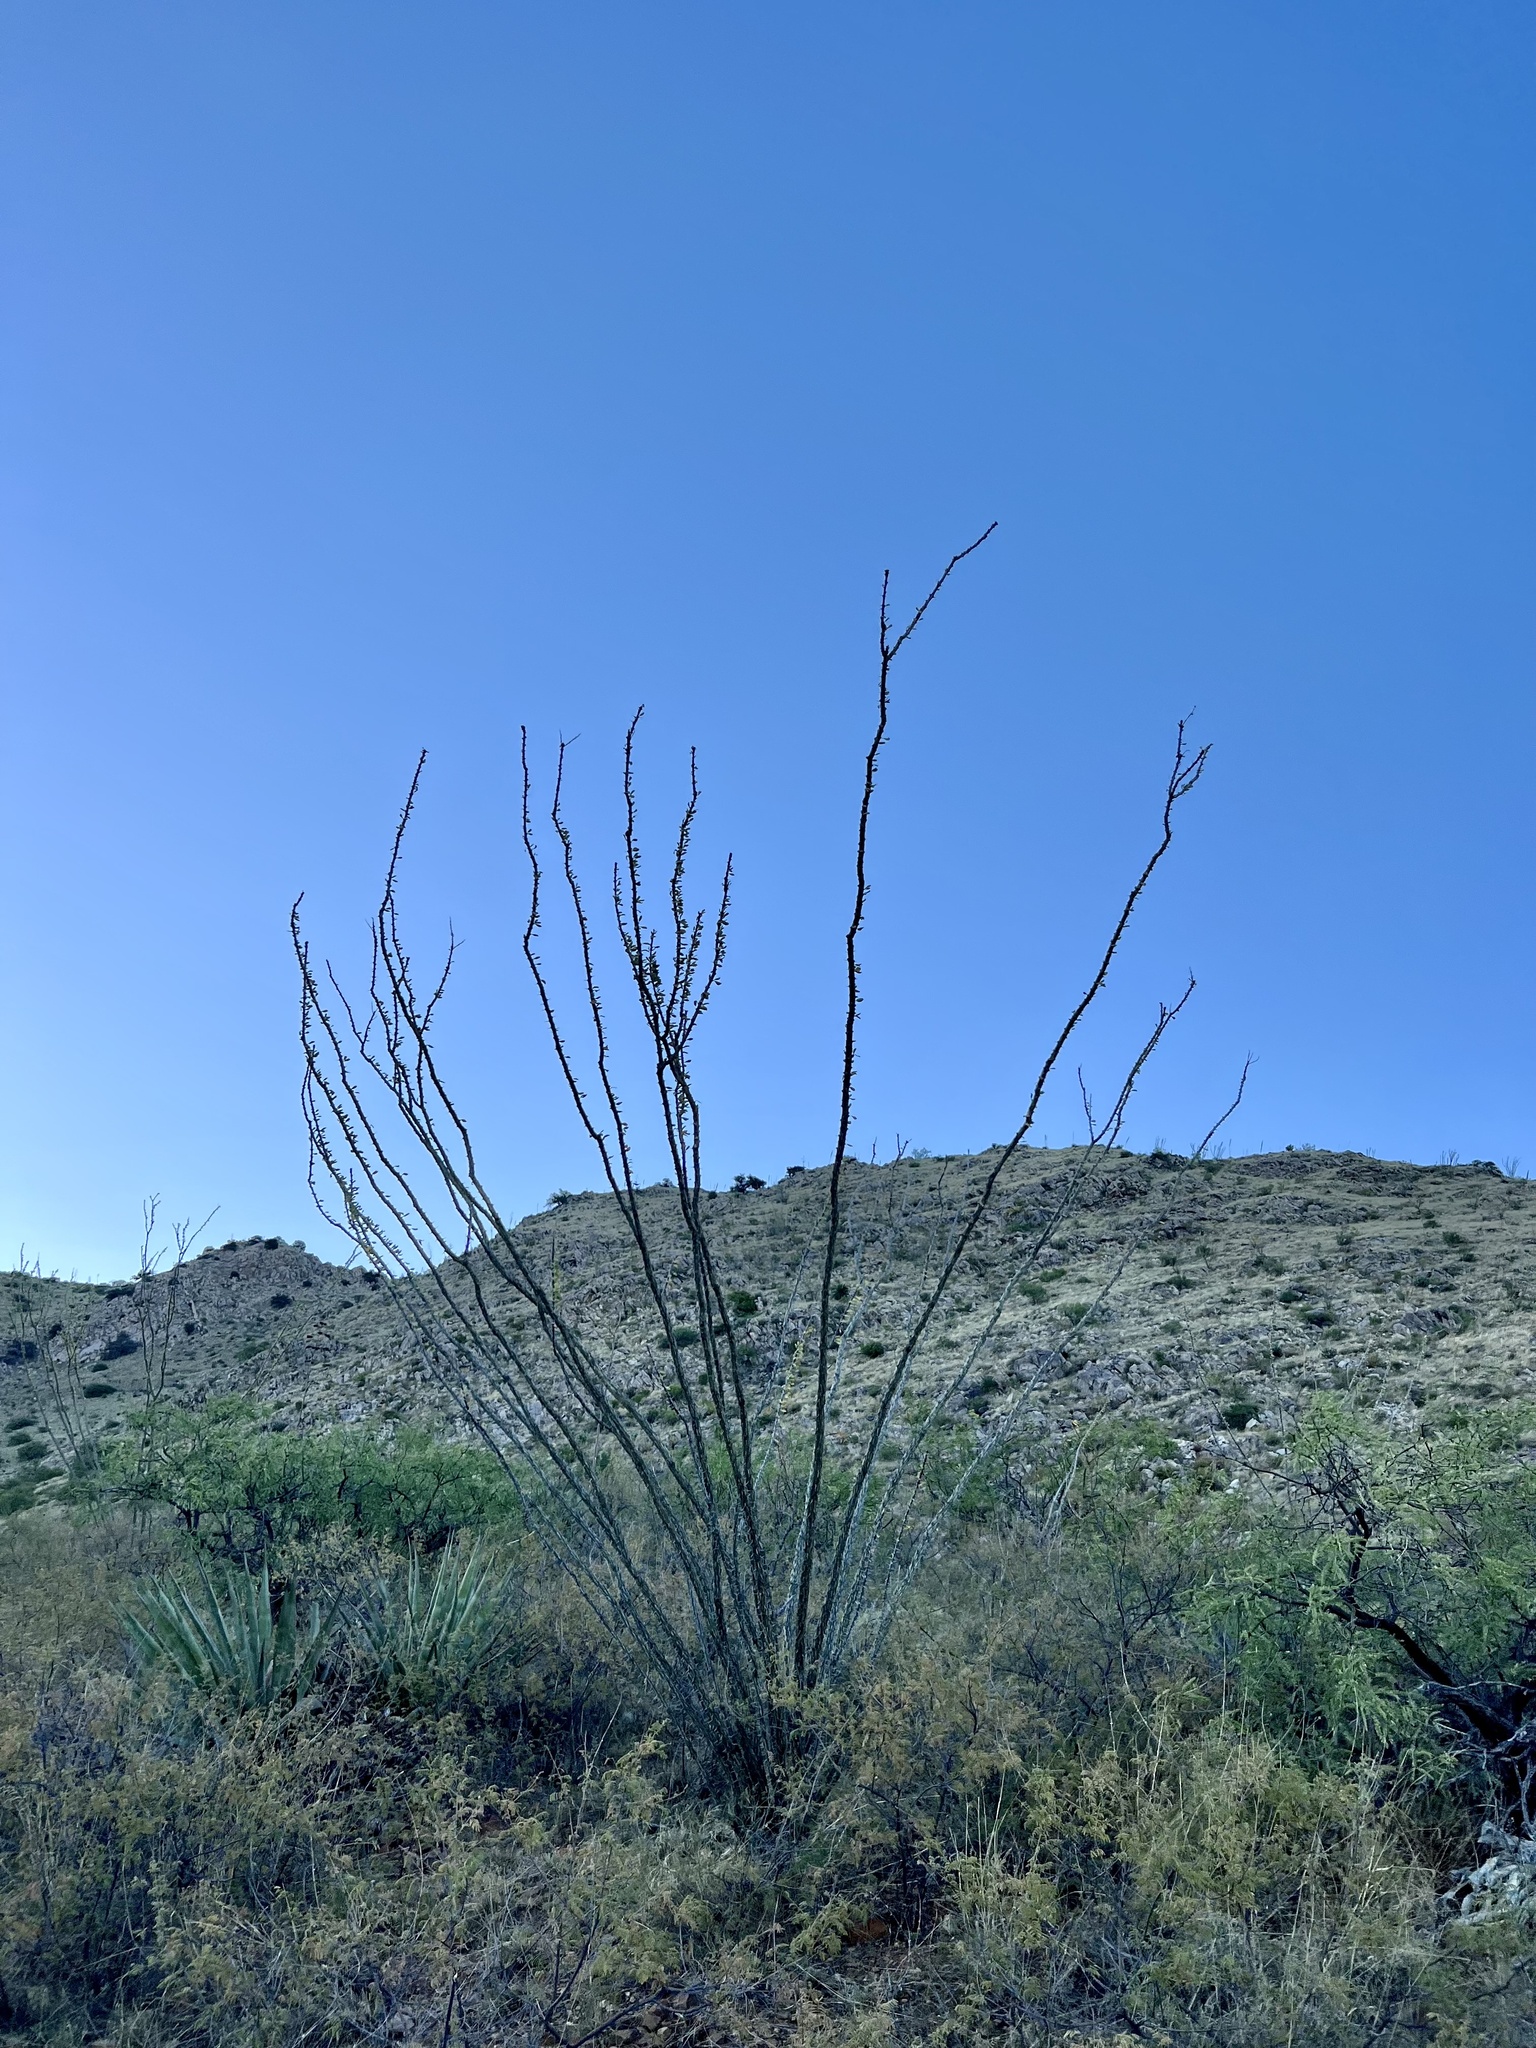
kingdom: Plantae
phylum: Tracheophyta
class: Magnoliopsida
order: Ericales
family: Fouquieriaceae
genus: Fouquieria
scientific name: Fouquieria splendens
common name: Vine-cactus
